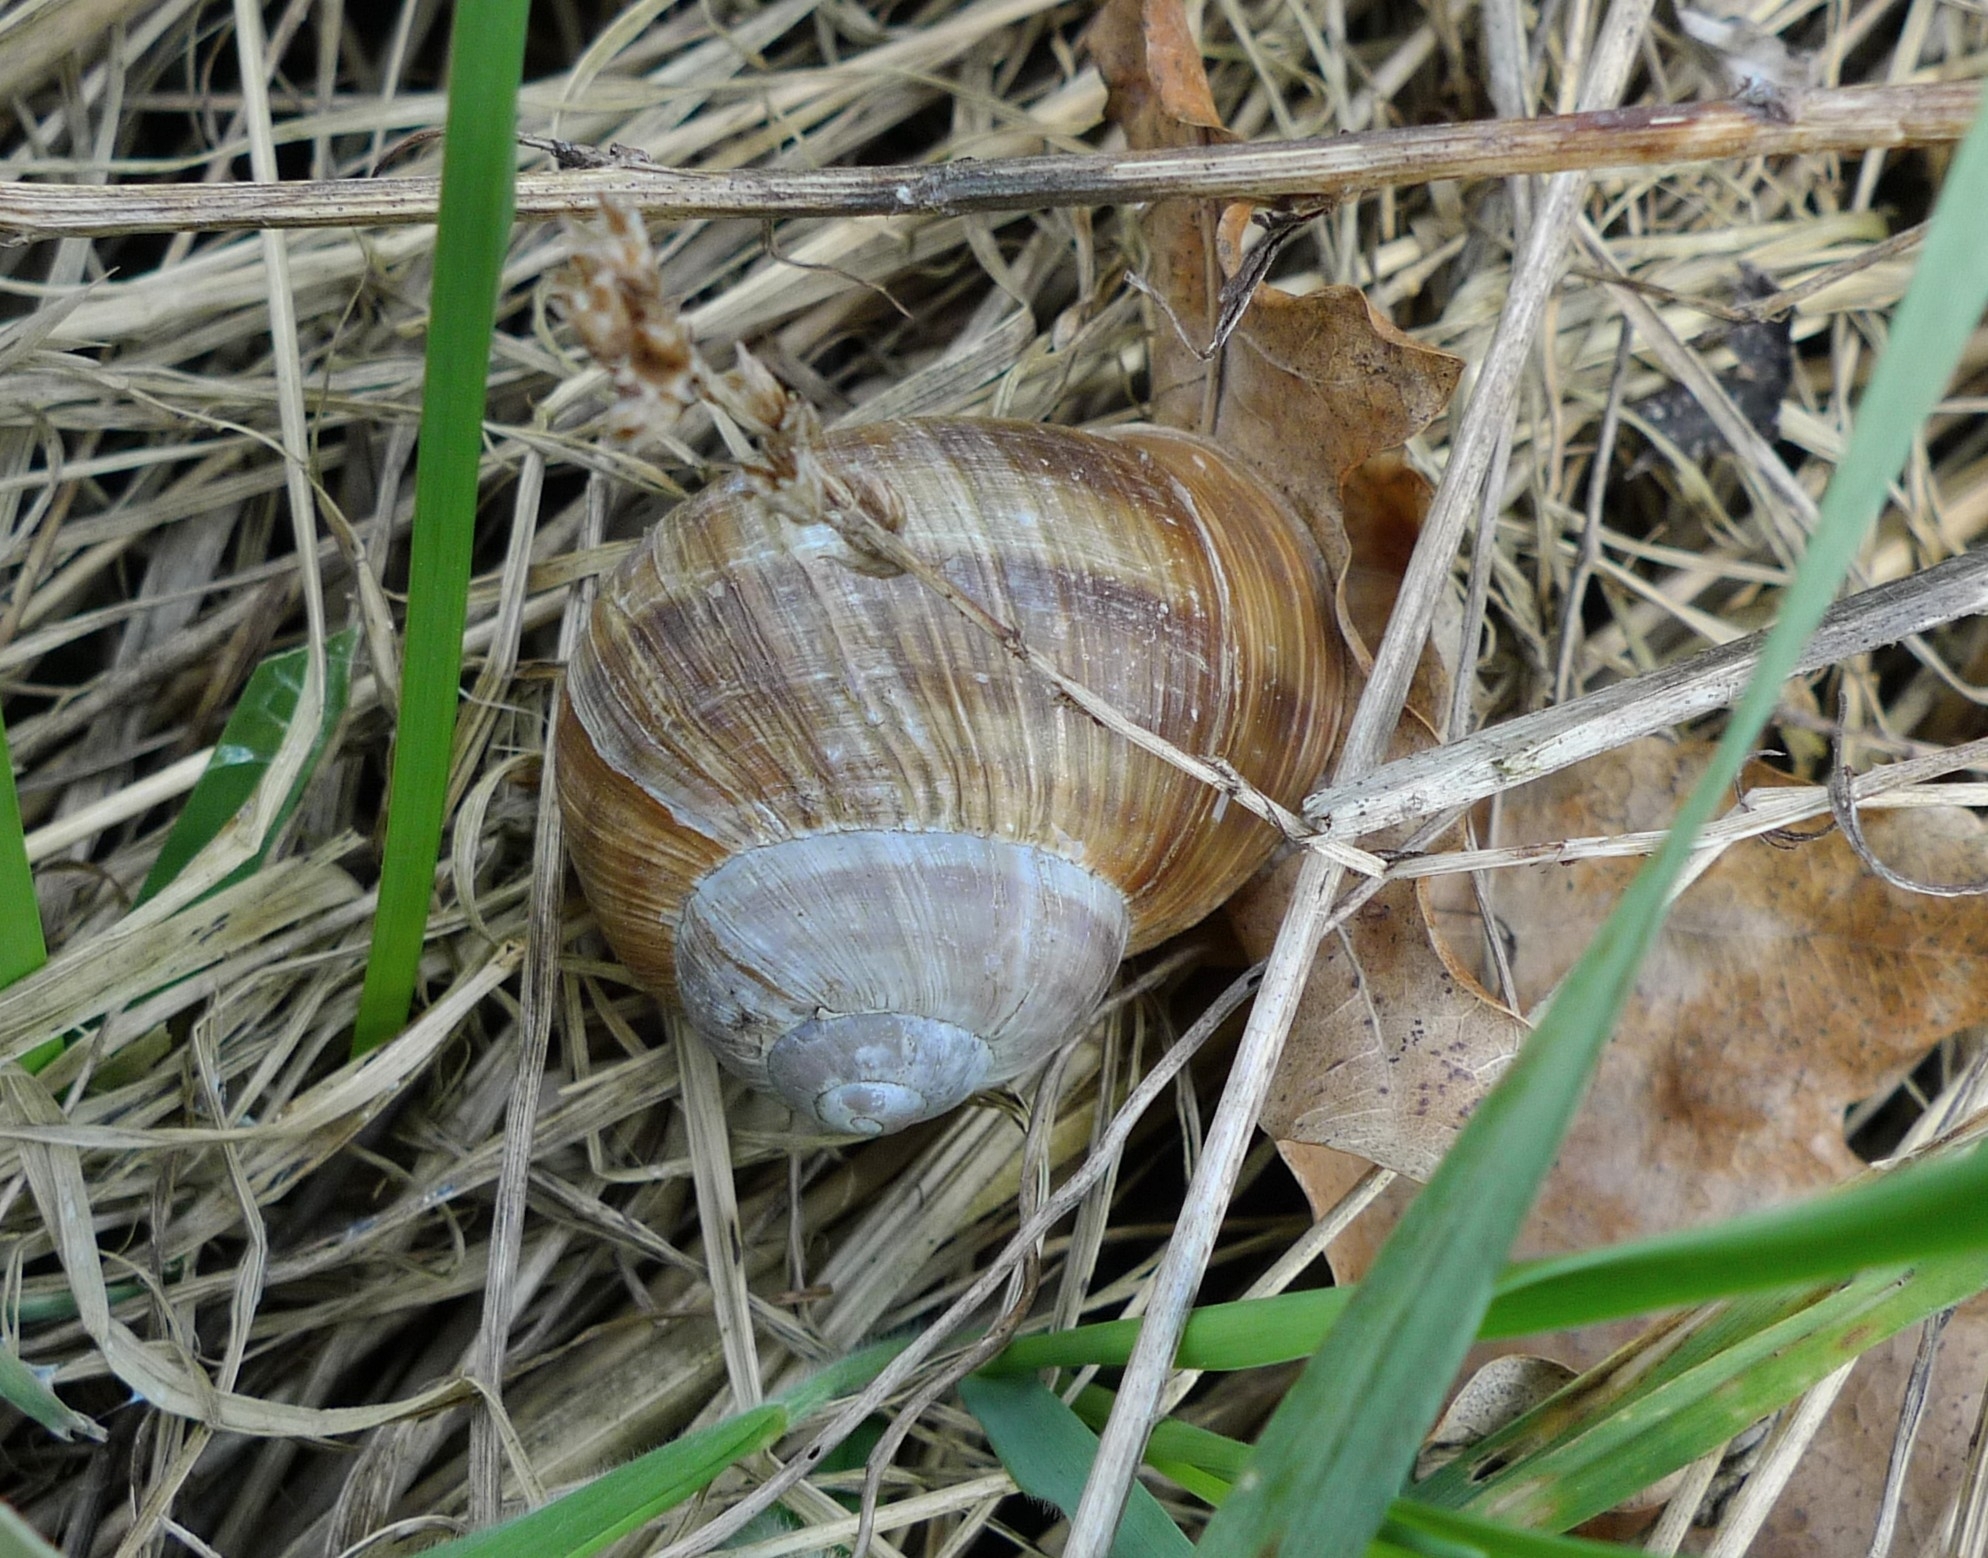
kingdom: Animalia
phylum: Mollusca
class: Gastropoda
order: Stylommatophora
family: Helicidae
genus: Helix
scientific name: Helix pomatia
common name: Roman snail
